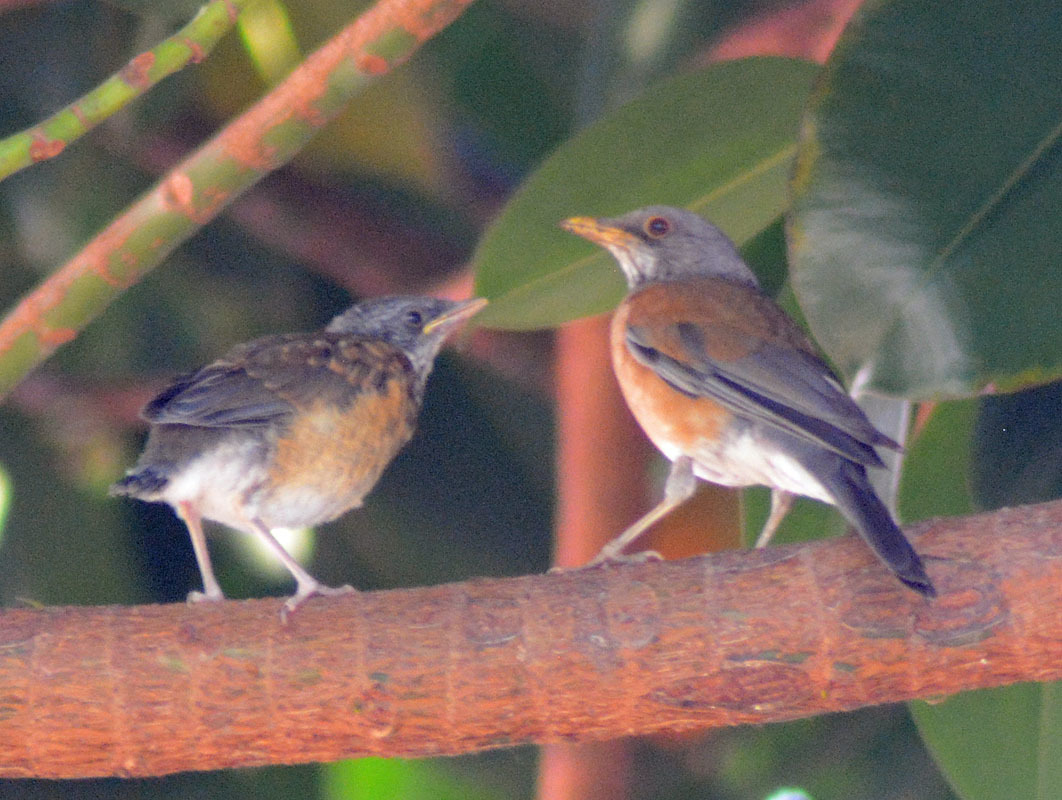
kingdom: Animalia
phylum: Chordata
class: Aves
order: Passeriformes
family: Turdidae
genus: Turdus
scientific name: Turdus rufopalliatus
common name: Rufous-backed robin
